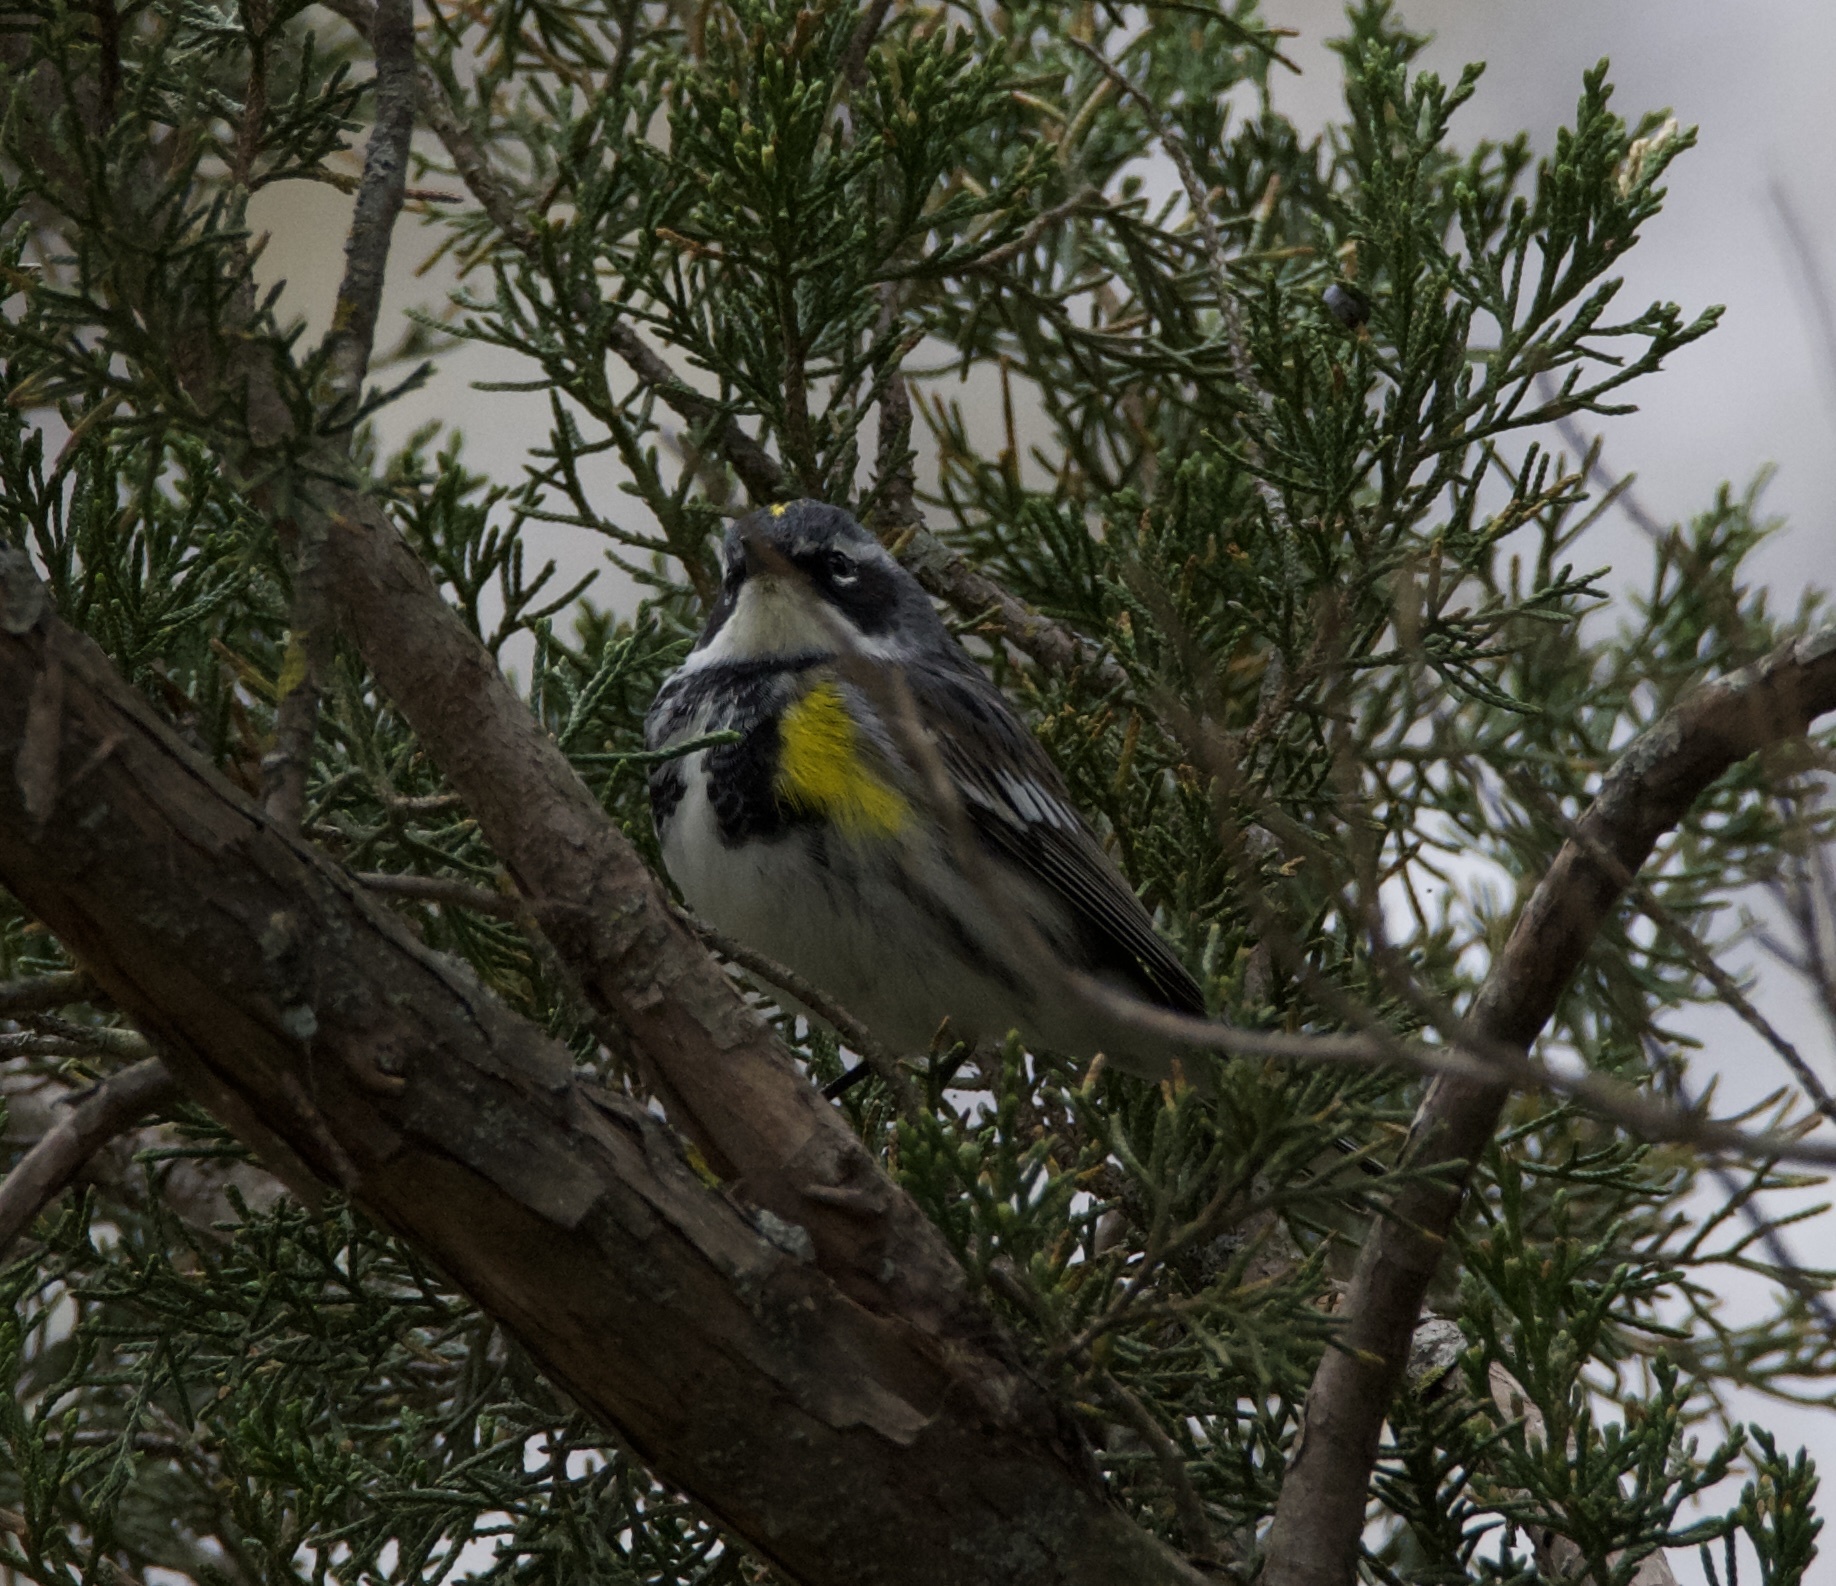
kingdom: Animalia
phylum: Chordata
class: Aves
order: Passeriformes
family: Parulidae
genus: Setophaga
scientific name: Setophaga coronata
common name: Myrtle warbler
